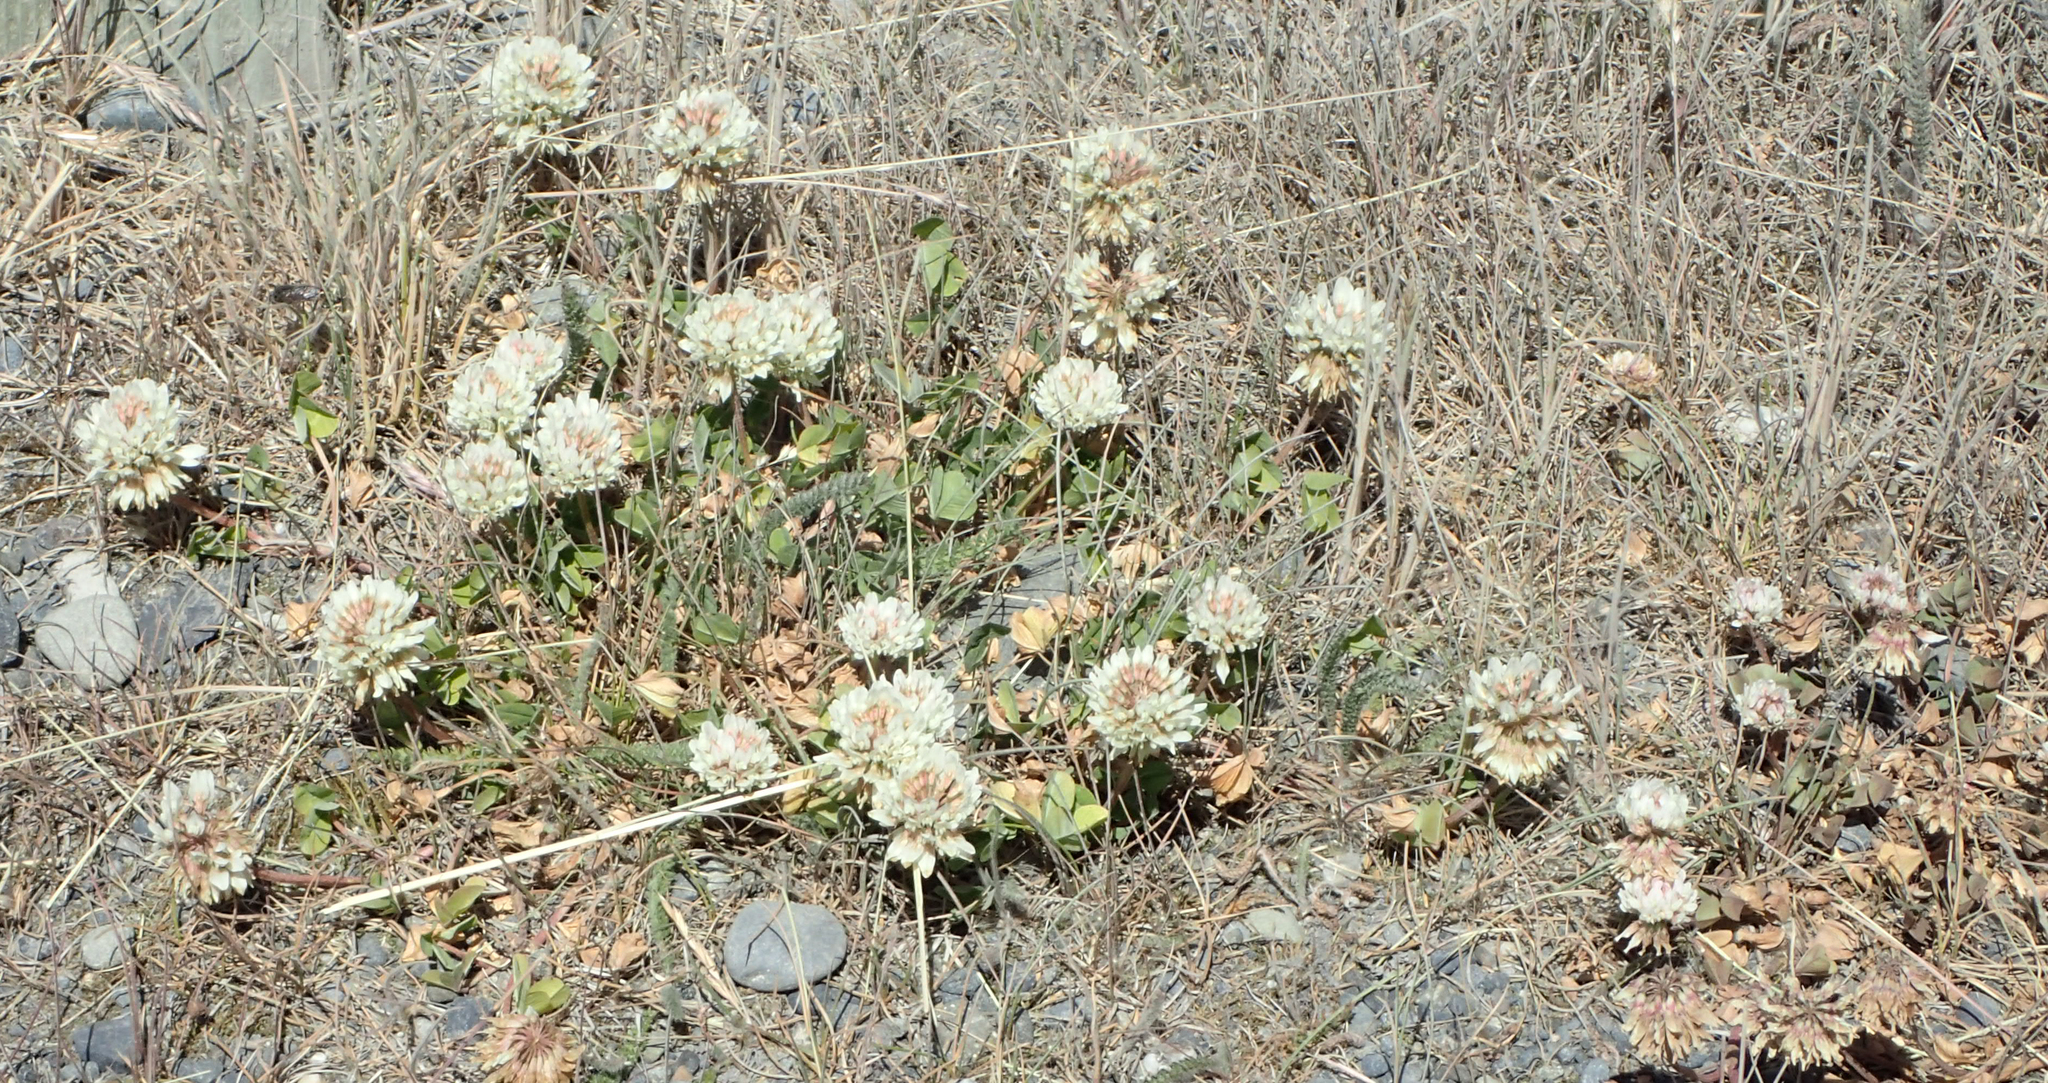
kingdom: Plantae
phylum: Tracheophyta
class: Magnoliopsida
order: Fabales
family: Fabaceae
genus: Trifolium
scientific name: Trifolium repens
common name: White clover
